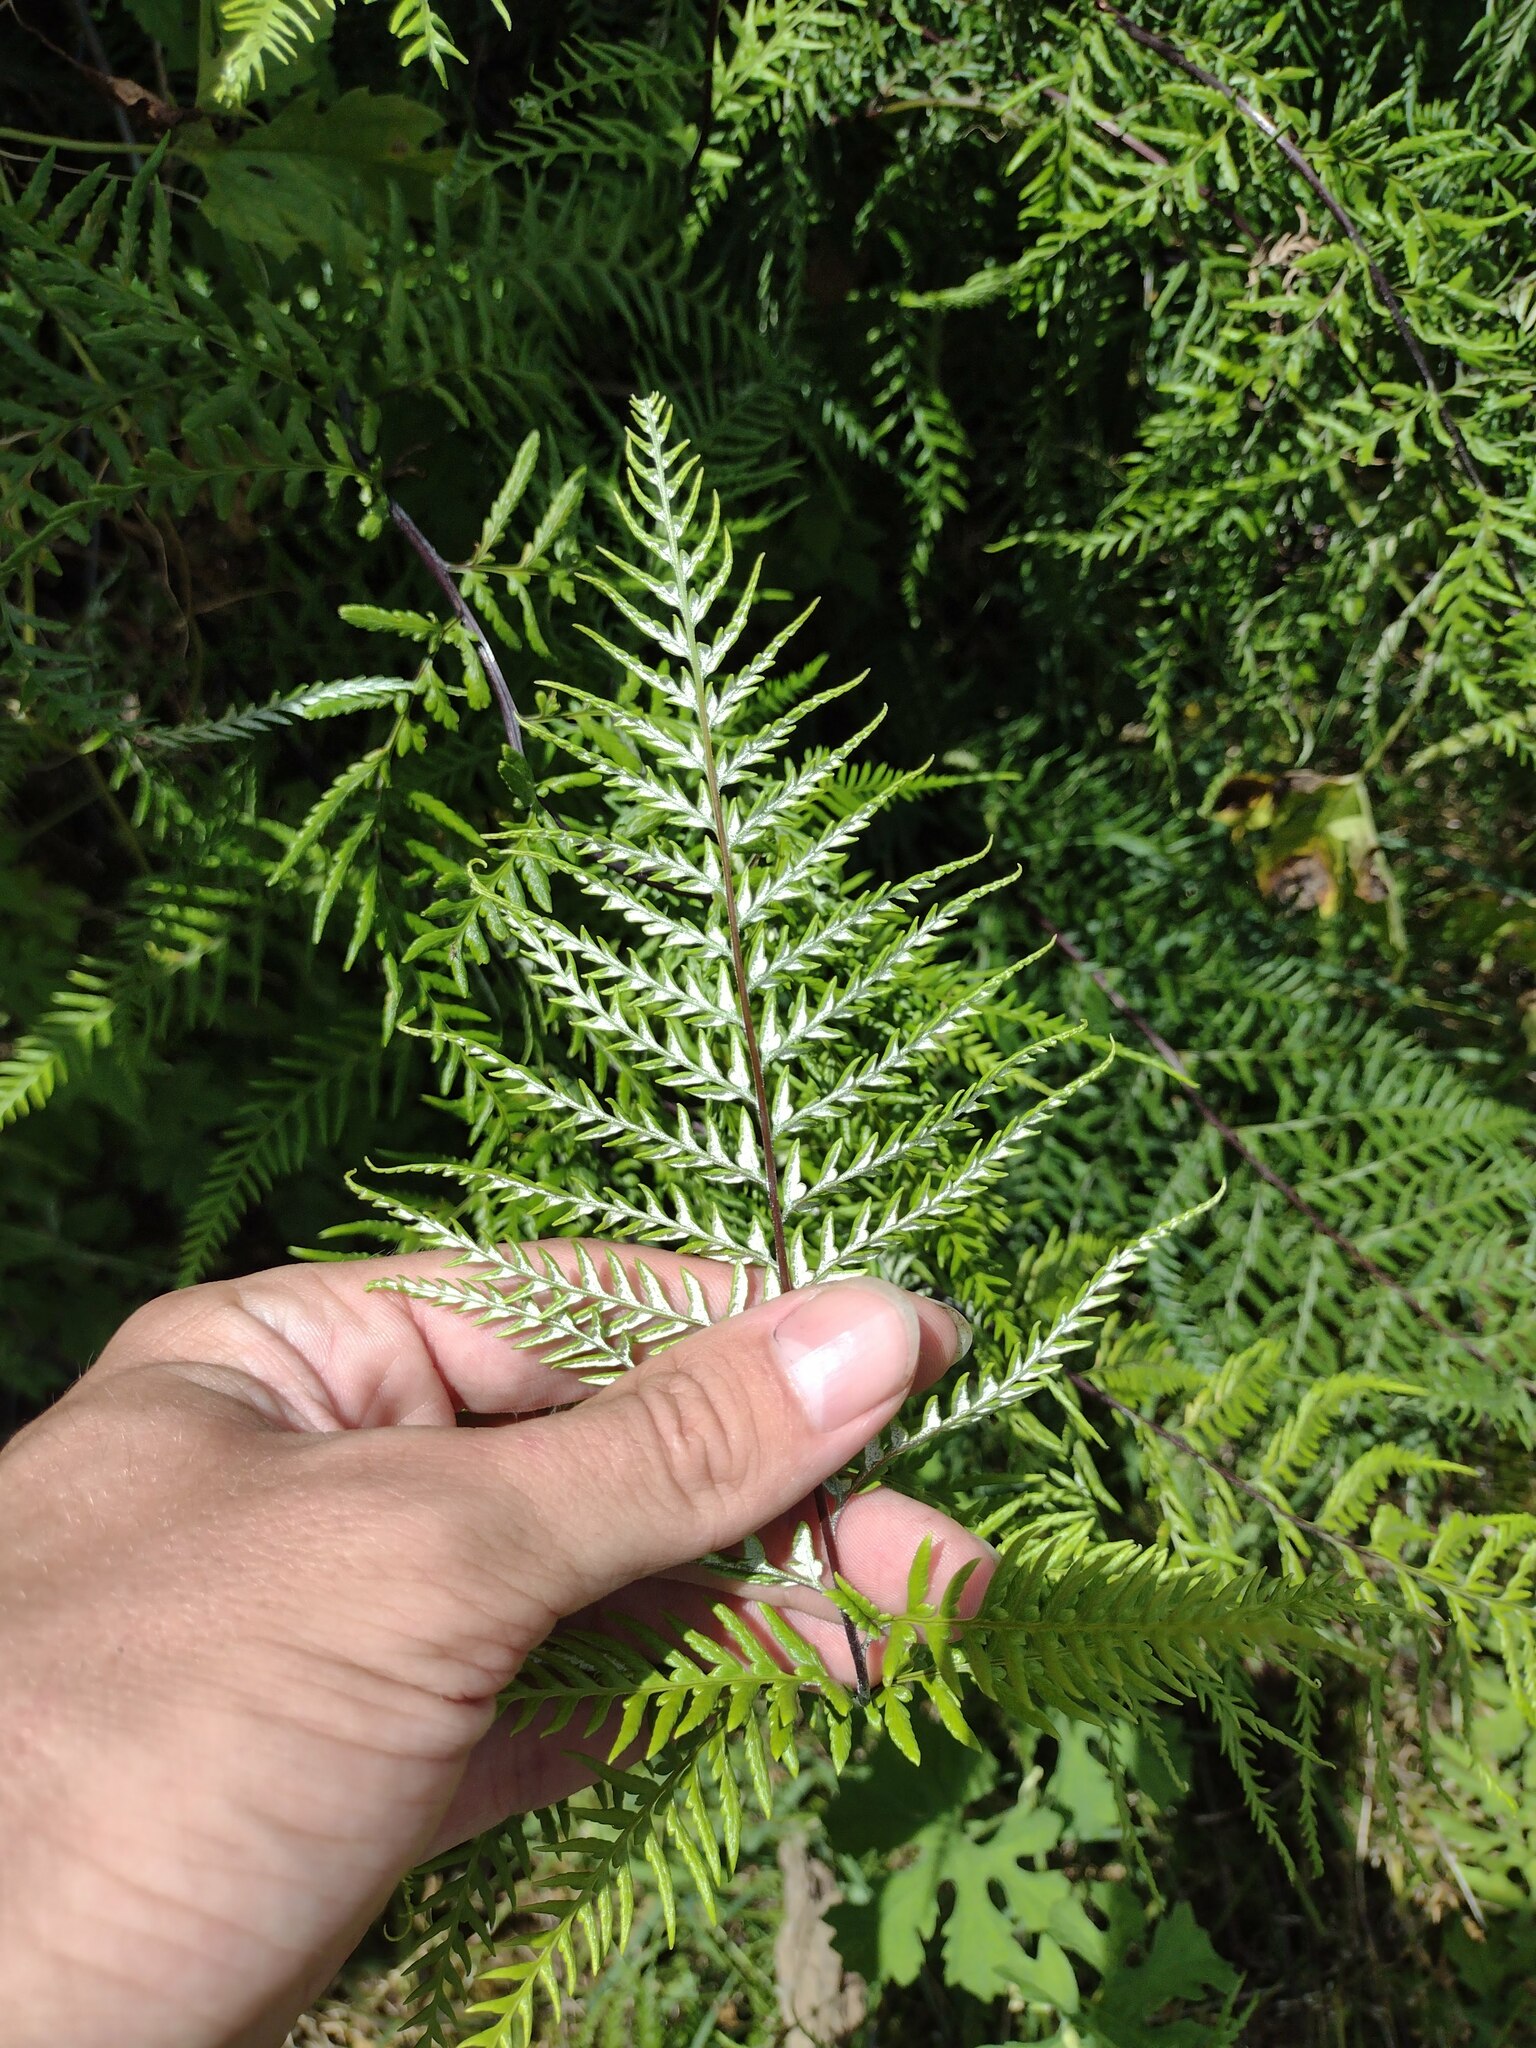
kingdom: Plantae
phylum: Tracheophyta
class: Polypodiopsida
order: Polypodiales
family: Pteridaceae
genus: Pityrogramma
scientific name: Pityrogramma calomelanos
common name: Dixie silverback fern
